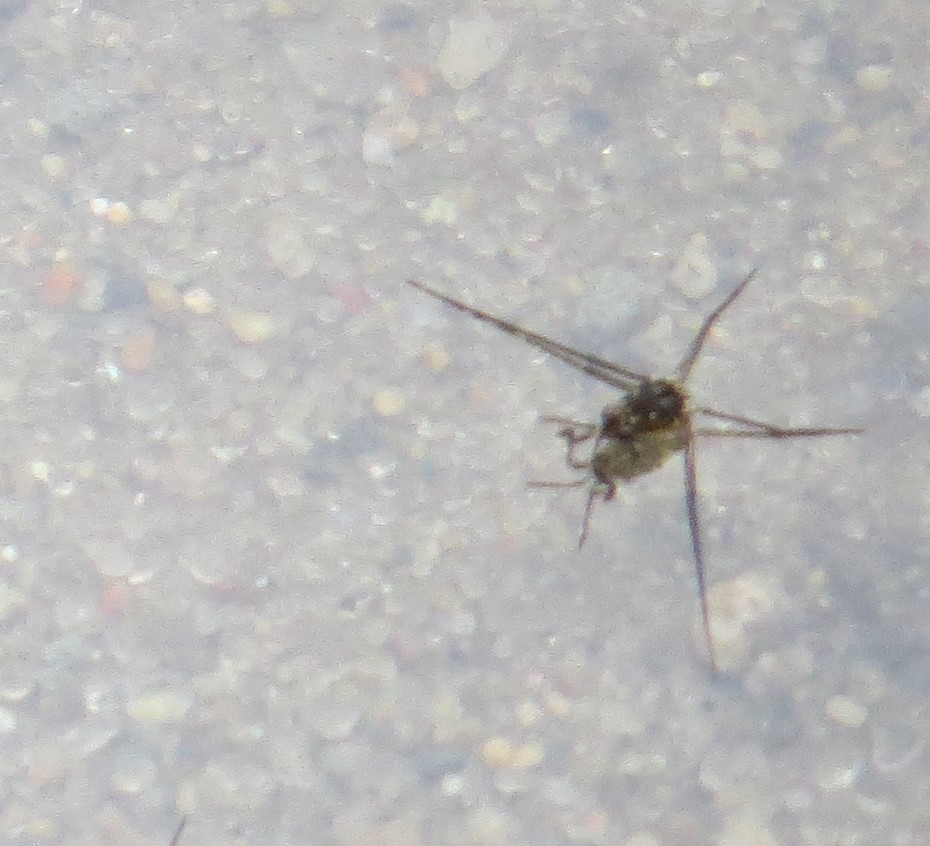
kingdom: Animalia
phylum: Arthropoda
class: Insecta
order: Hemiptera
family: Gerridae
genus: Trepobates
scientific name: Trepobates
